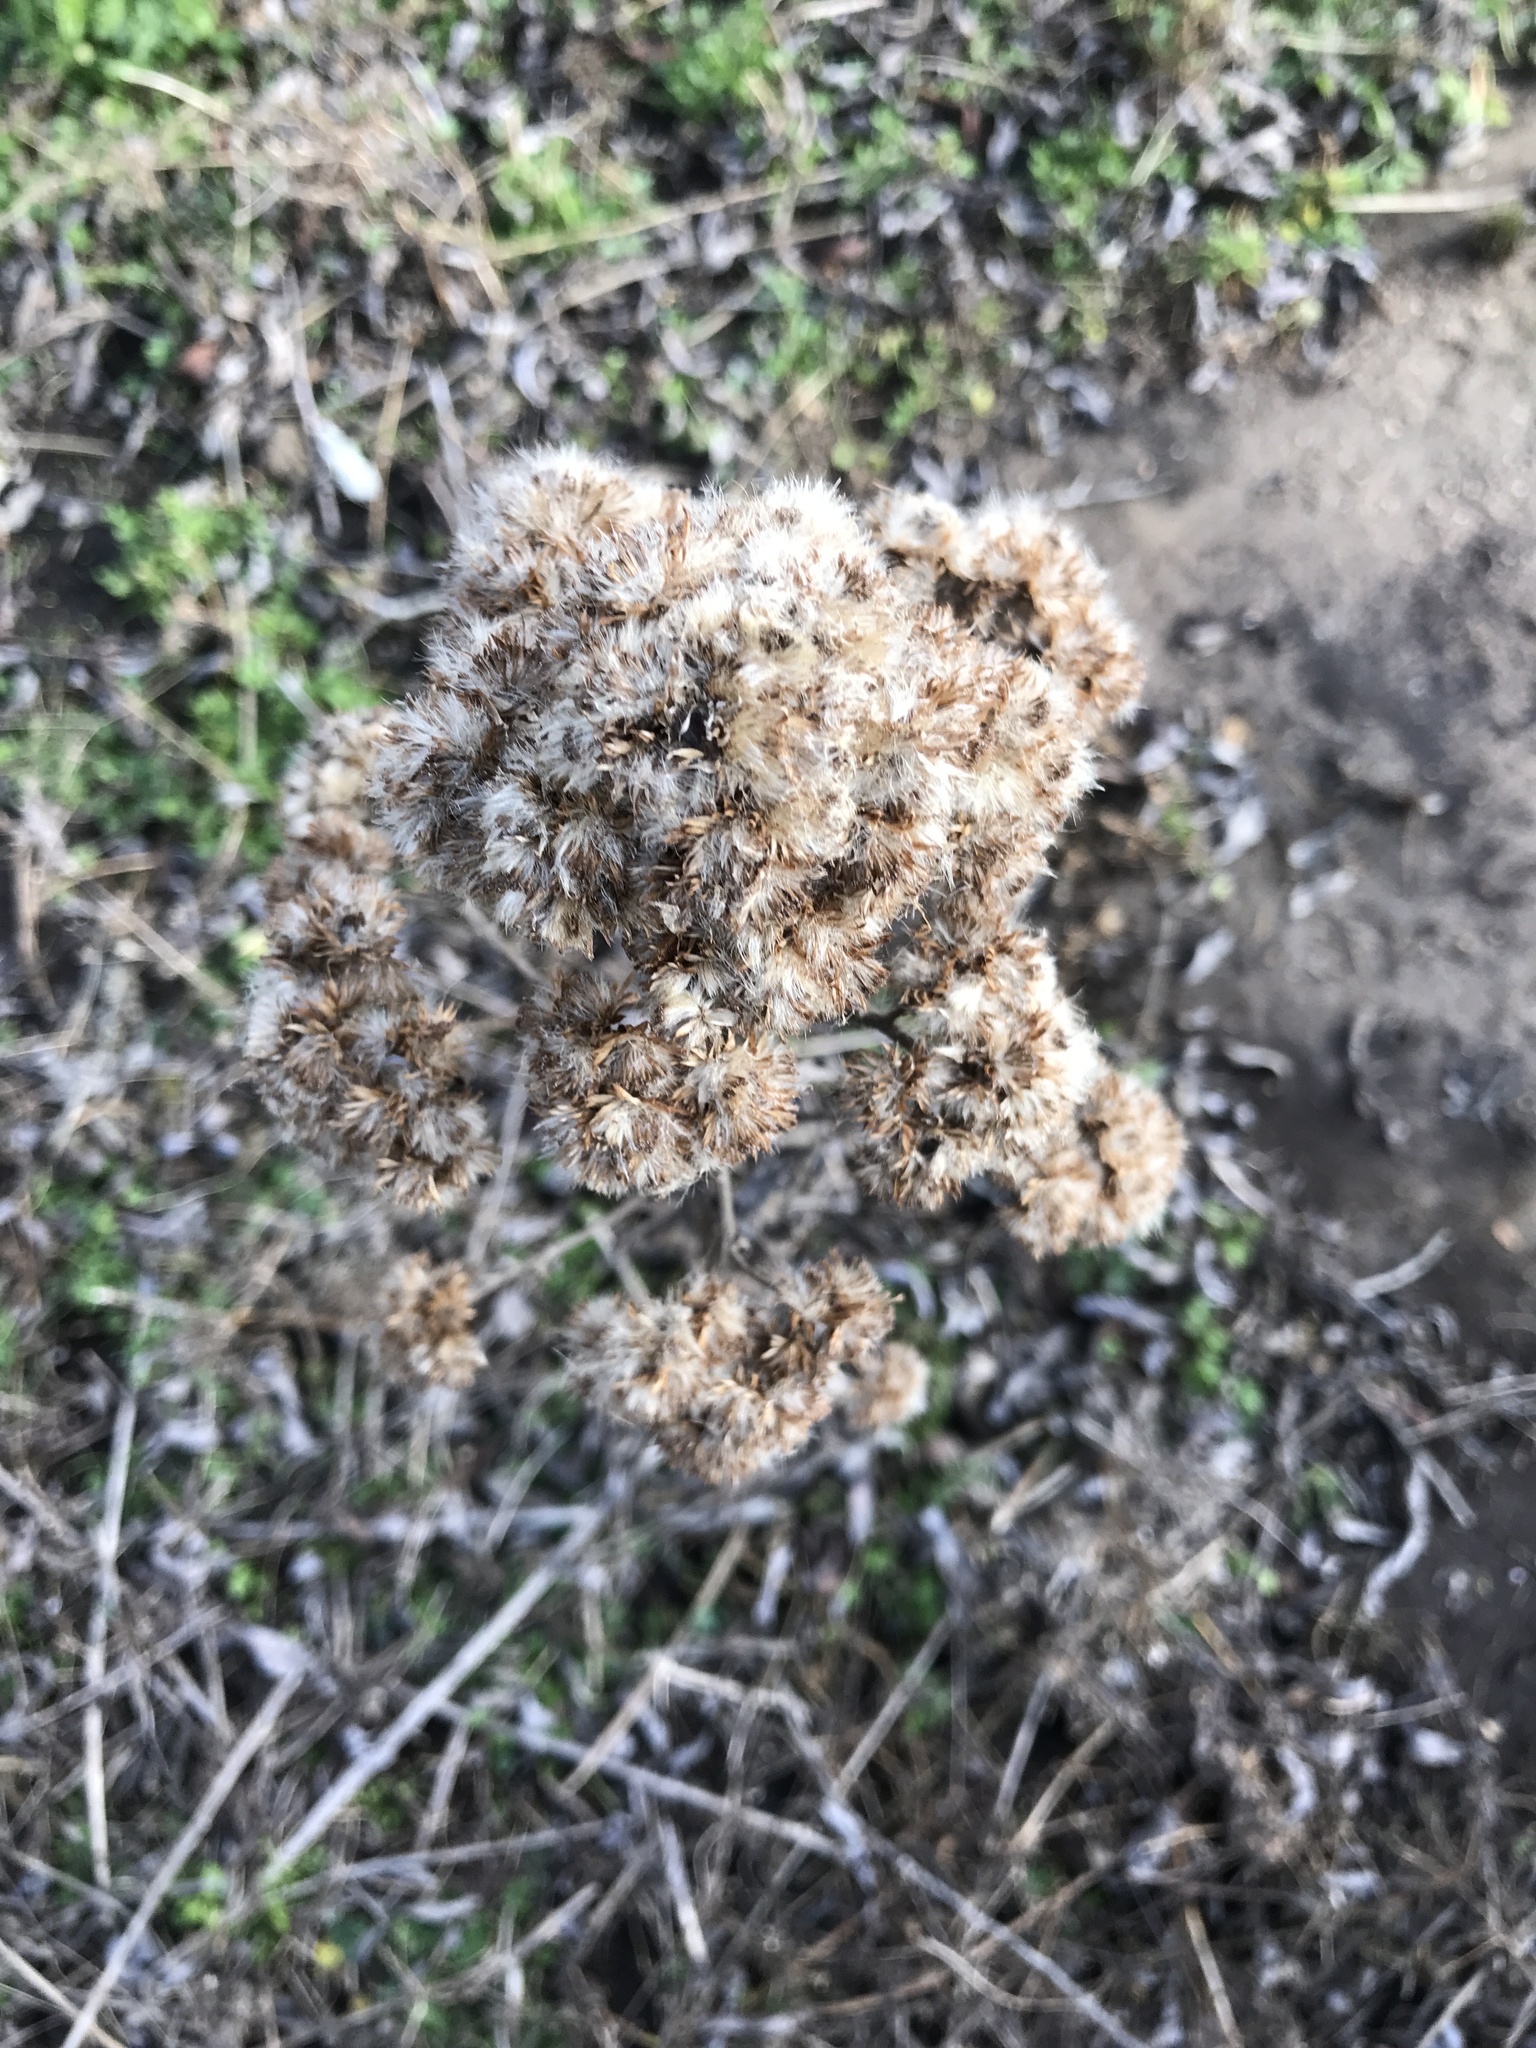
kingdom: Plantae
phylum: Tracheophyta
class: Magnoliopsida
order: Asterales
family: Asteraceae
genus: Pluchea
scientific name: Pluchea odorata
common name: Saltmarsh fleabane
